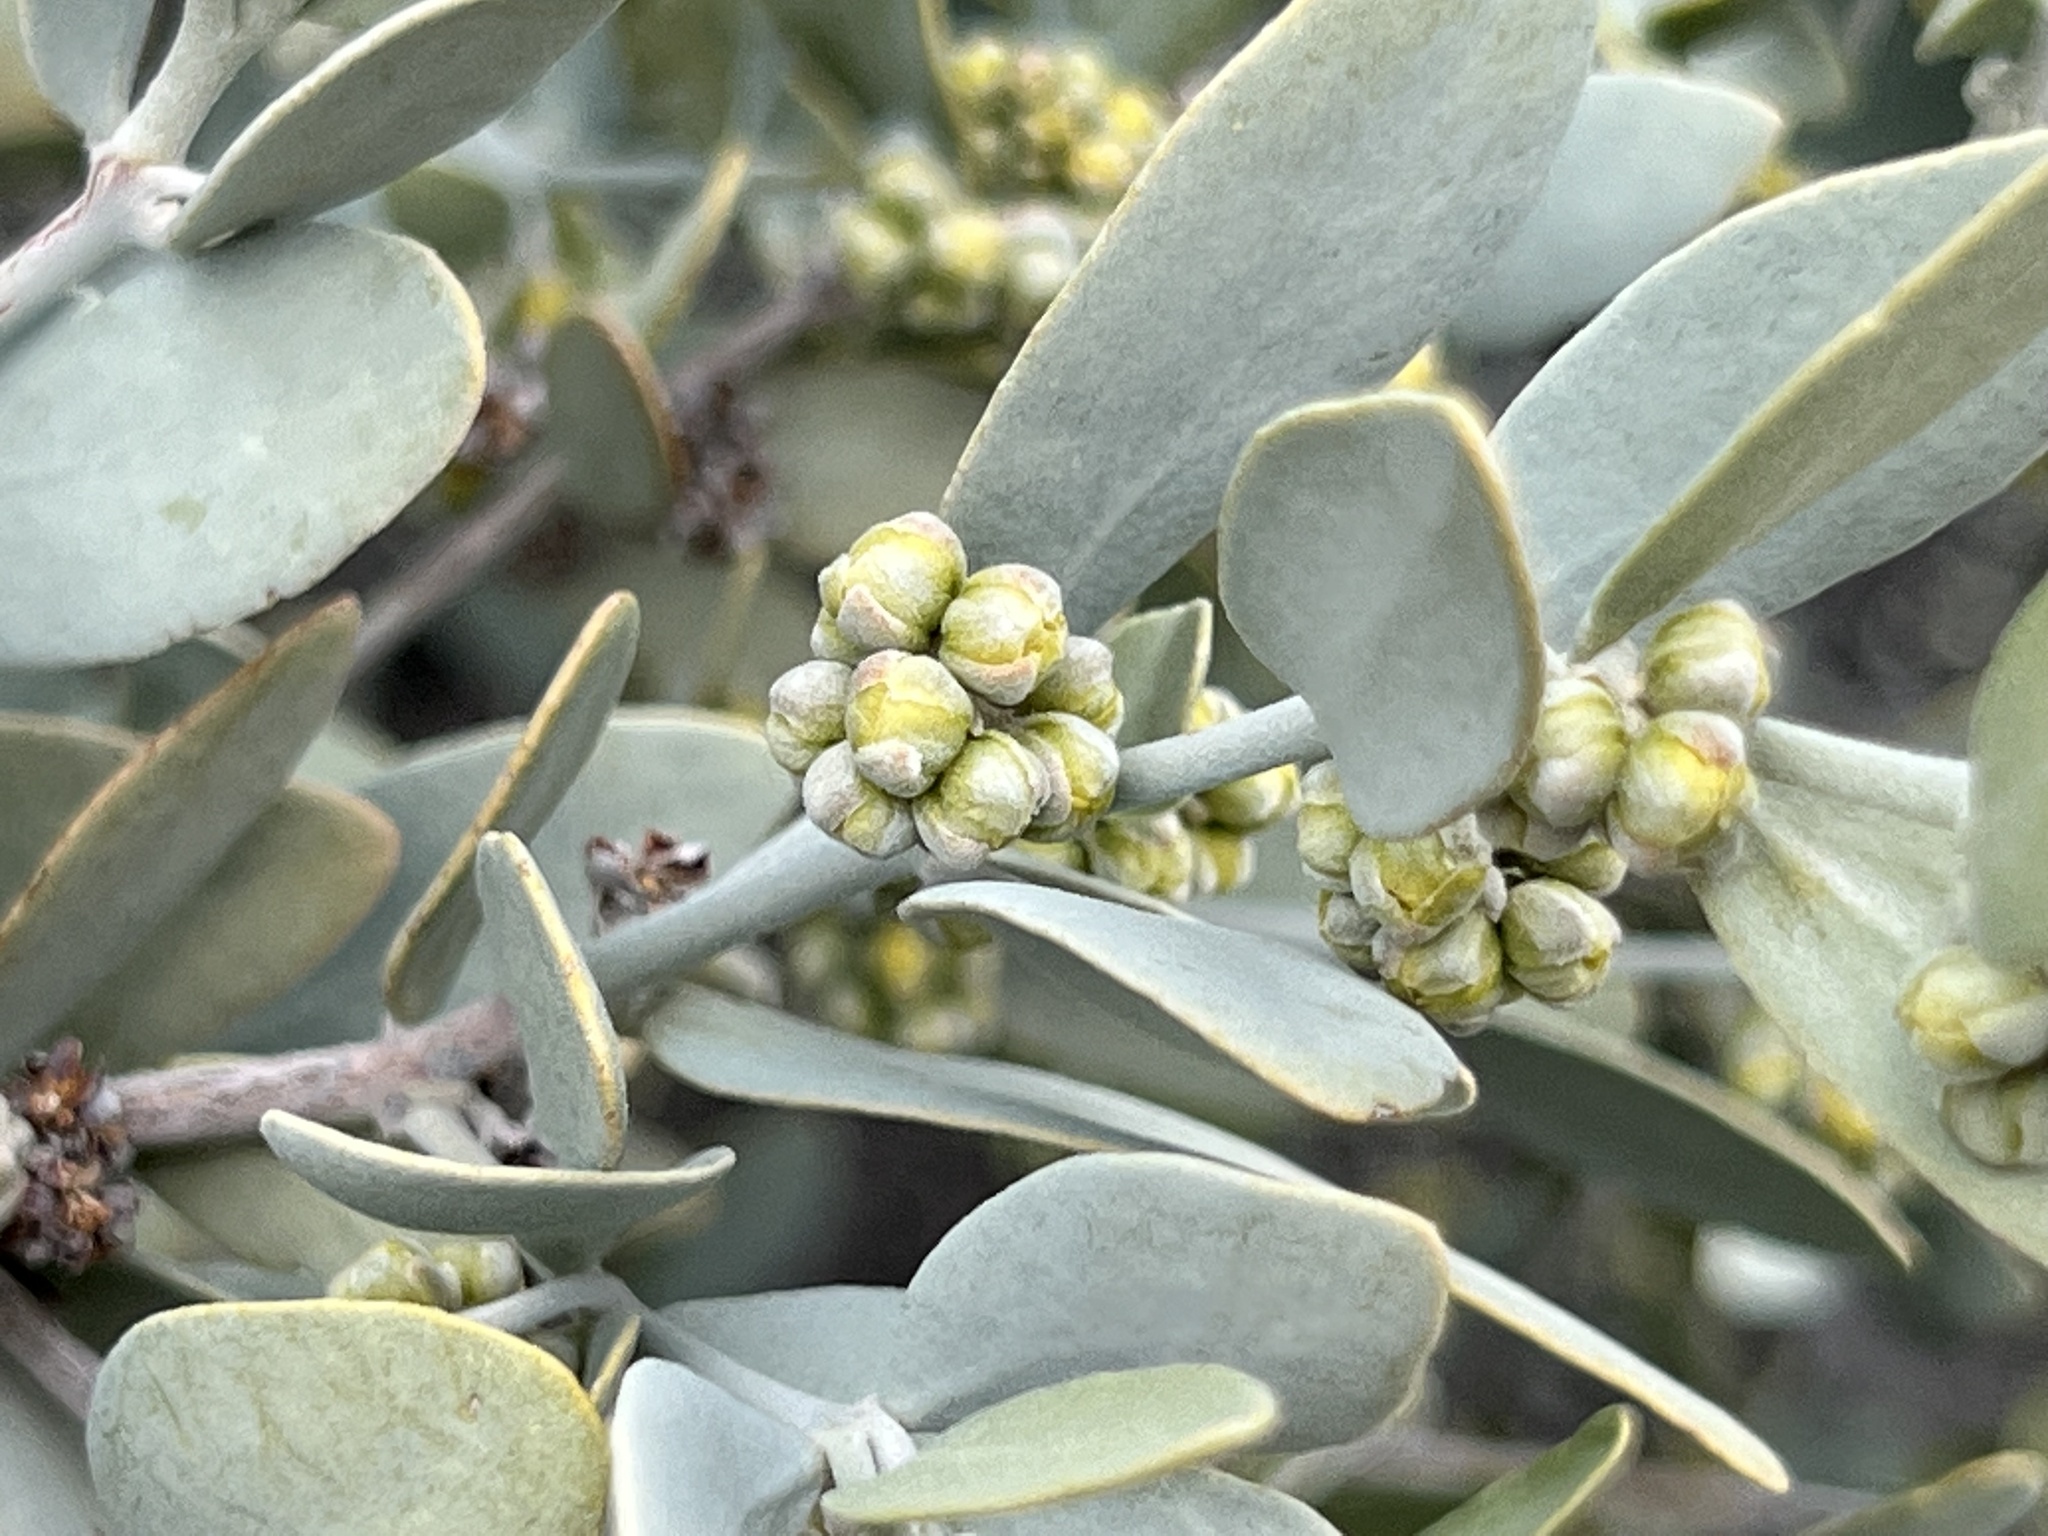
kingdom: Plantae
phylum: Tracheophyta
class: Magnoliopsida
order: Caryophyllales
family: Simmondsiaceae
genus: Simmondsia
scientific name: Simmondsia chinensis
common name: Jojoba
